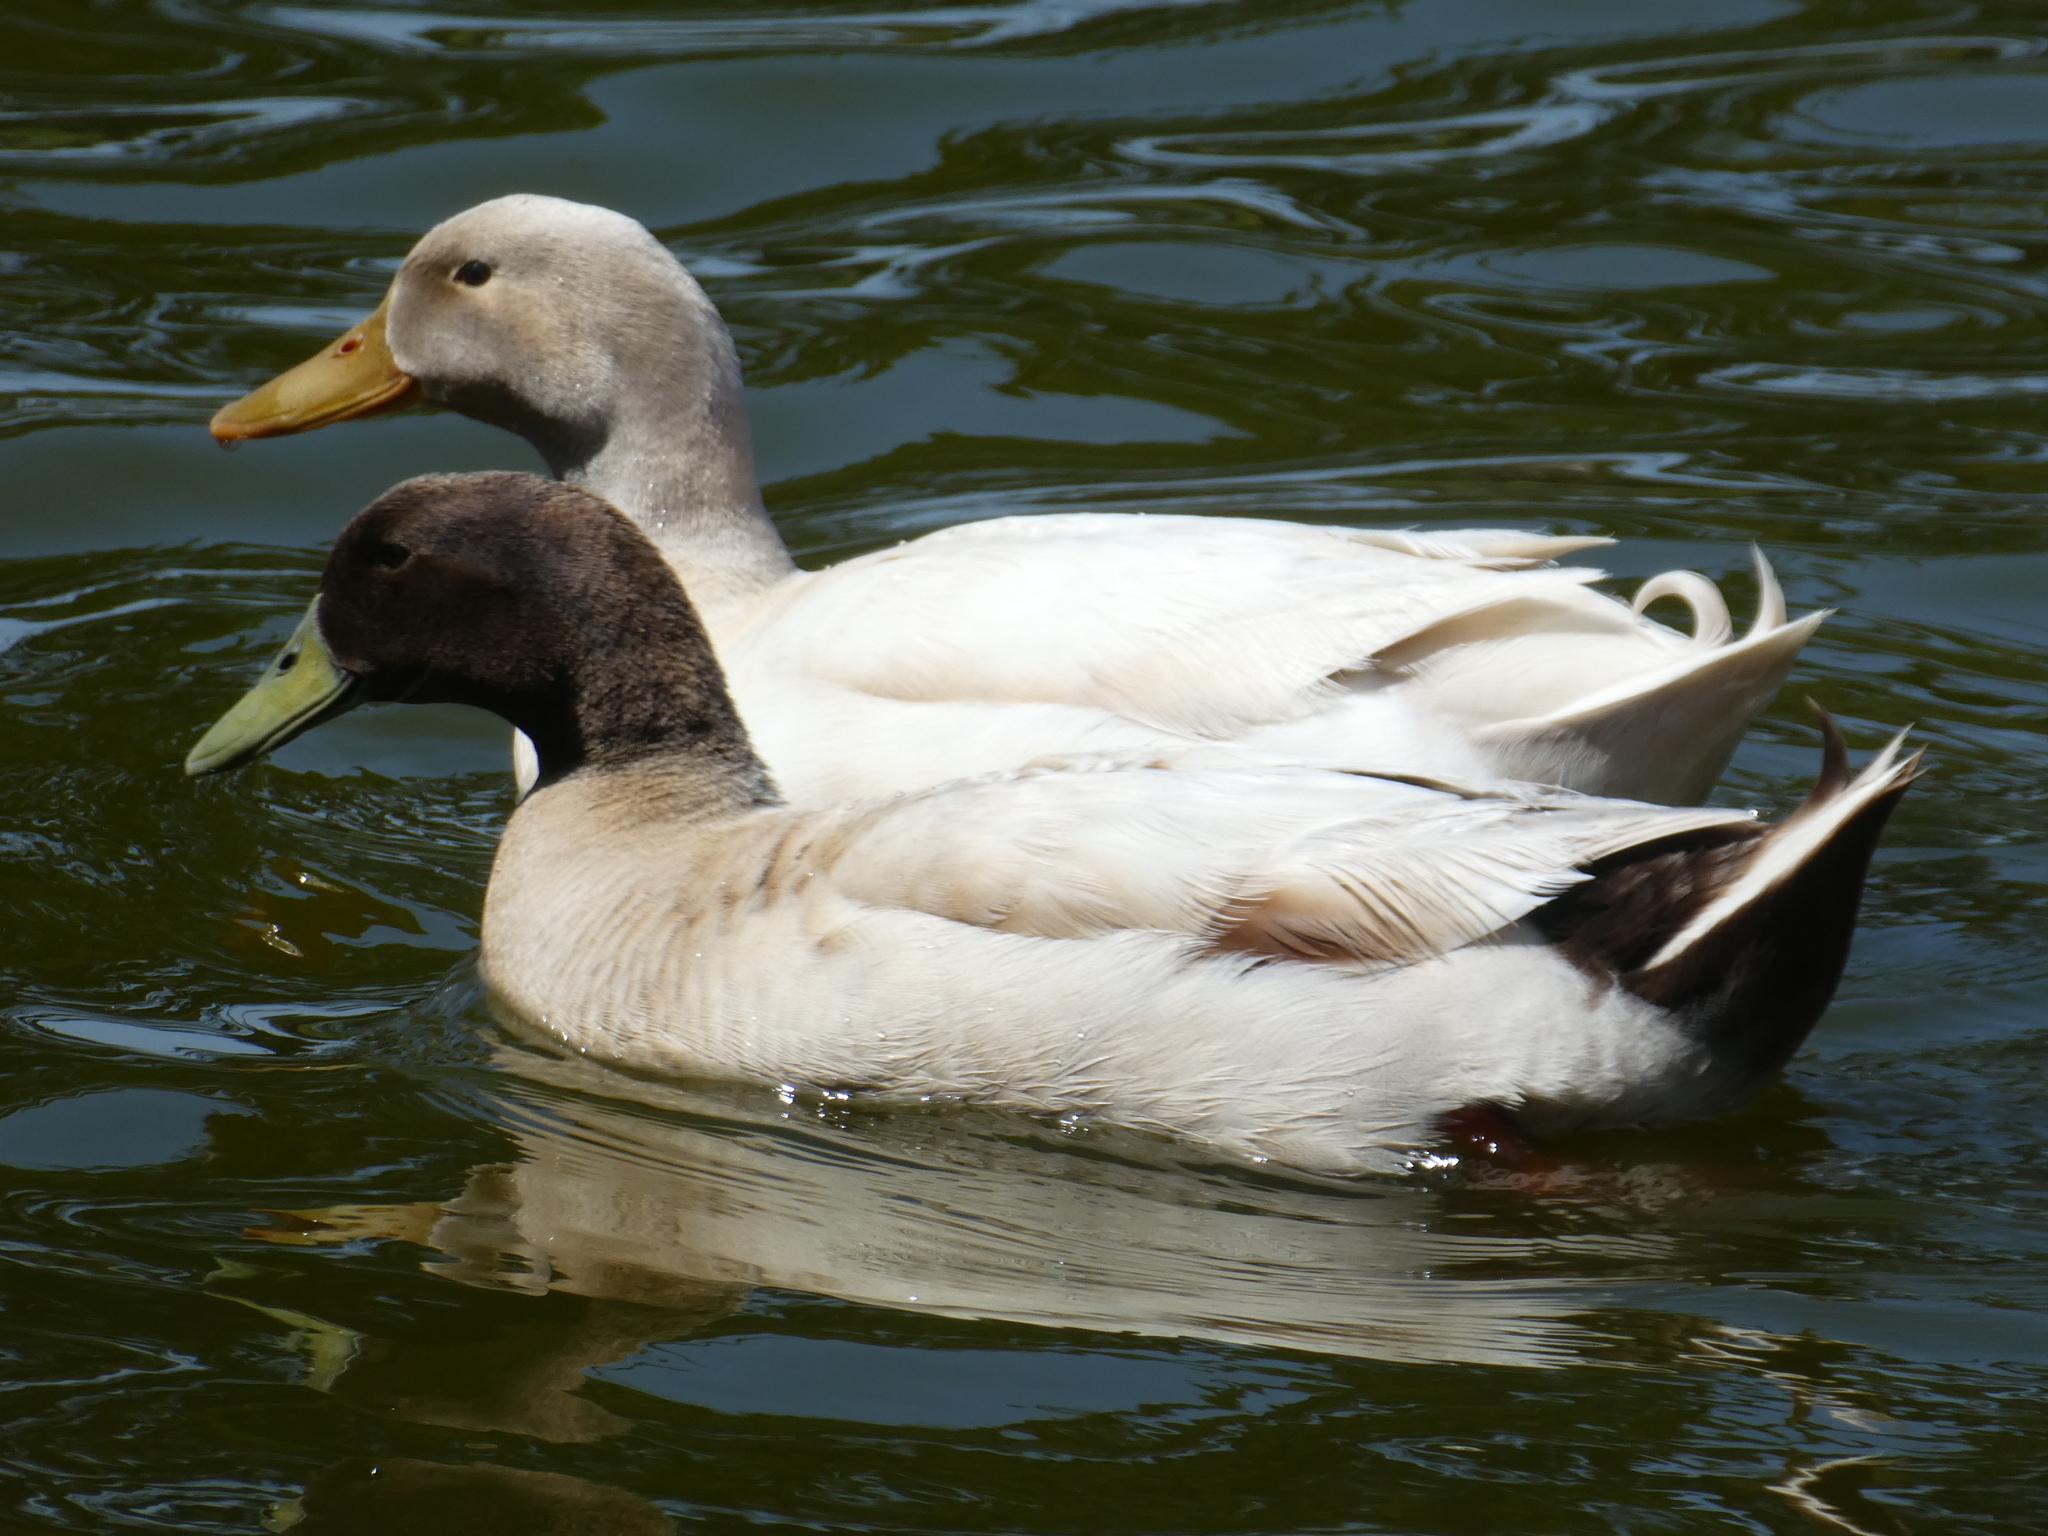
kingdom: Animalia
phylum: Chordata
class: Aves
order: Anseriformes
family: Anatidae
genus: Anas
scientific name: Anas platyrhynchos
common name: Mallard
